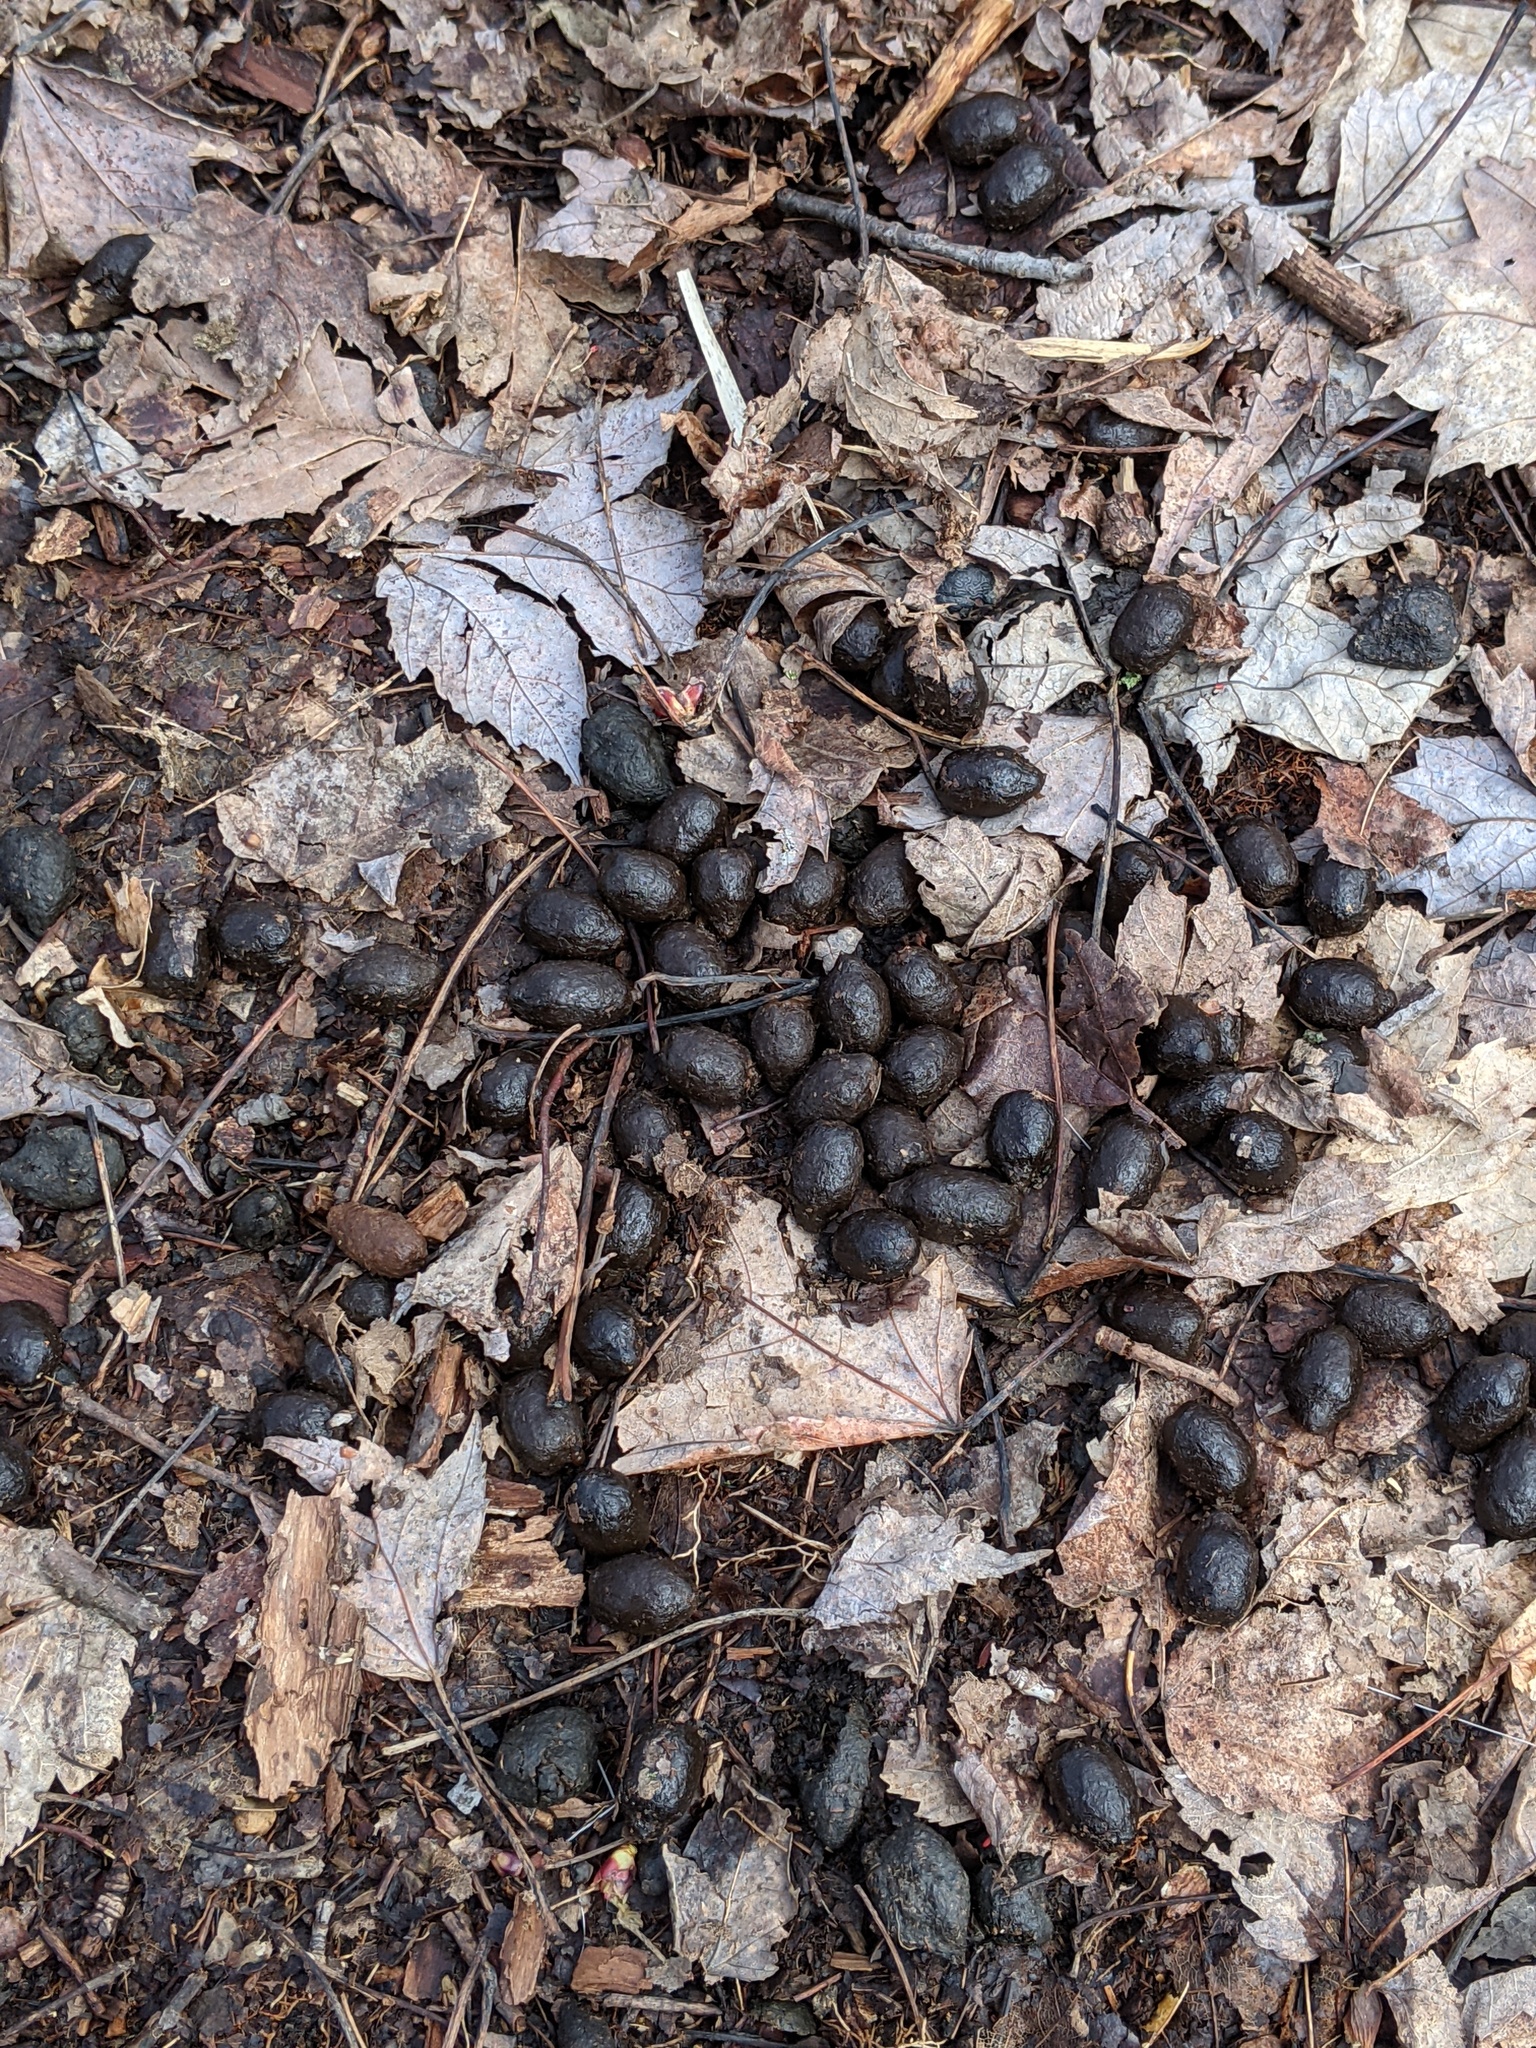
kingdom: Animalia
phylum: Chordata
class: Mammalia
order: Artiodactyla
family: Cervidae
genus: Odocoileus
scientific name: Odocoileus virginianus
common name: White-tailed deer
